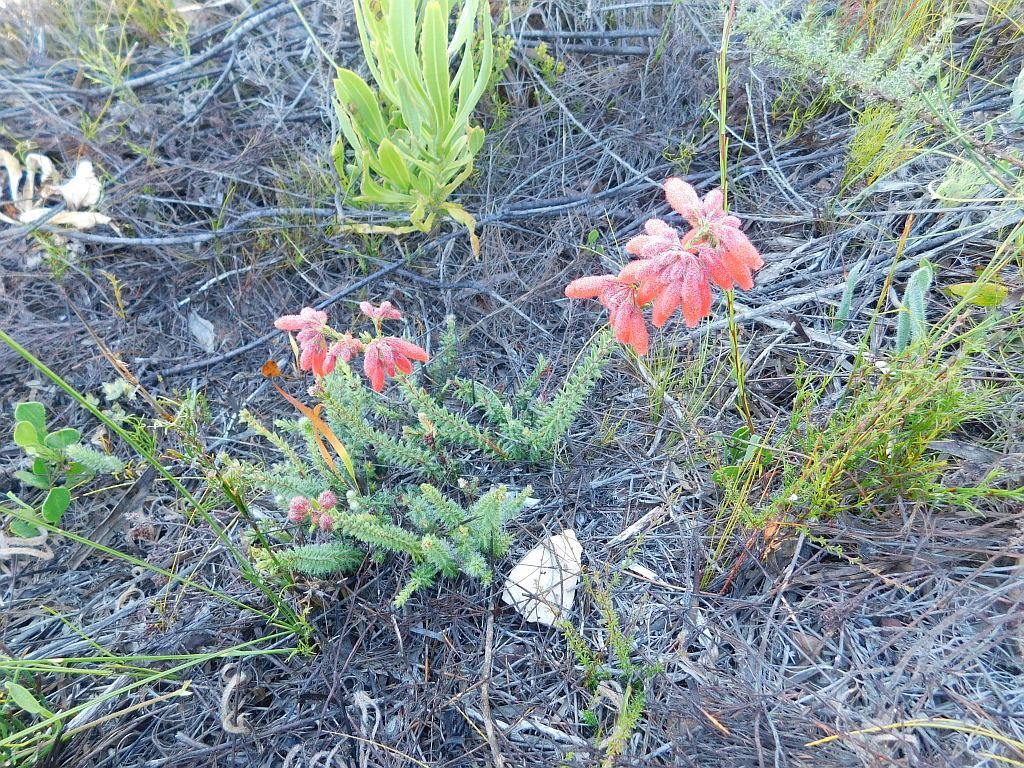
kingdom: Plantae
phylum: Tracheophyta
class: Magnoliopsida
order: Ericales
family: Ericaceae
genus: Erica
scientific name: Erica cerinthoides
